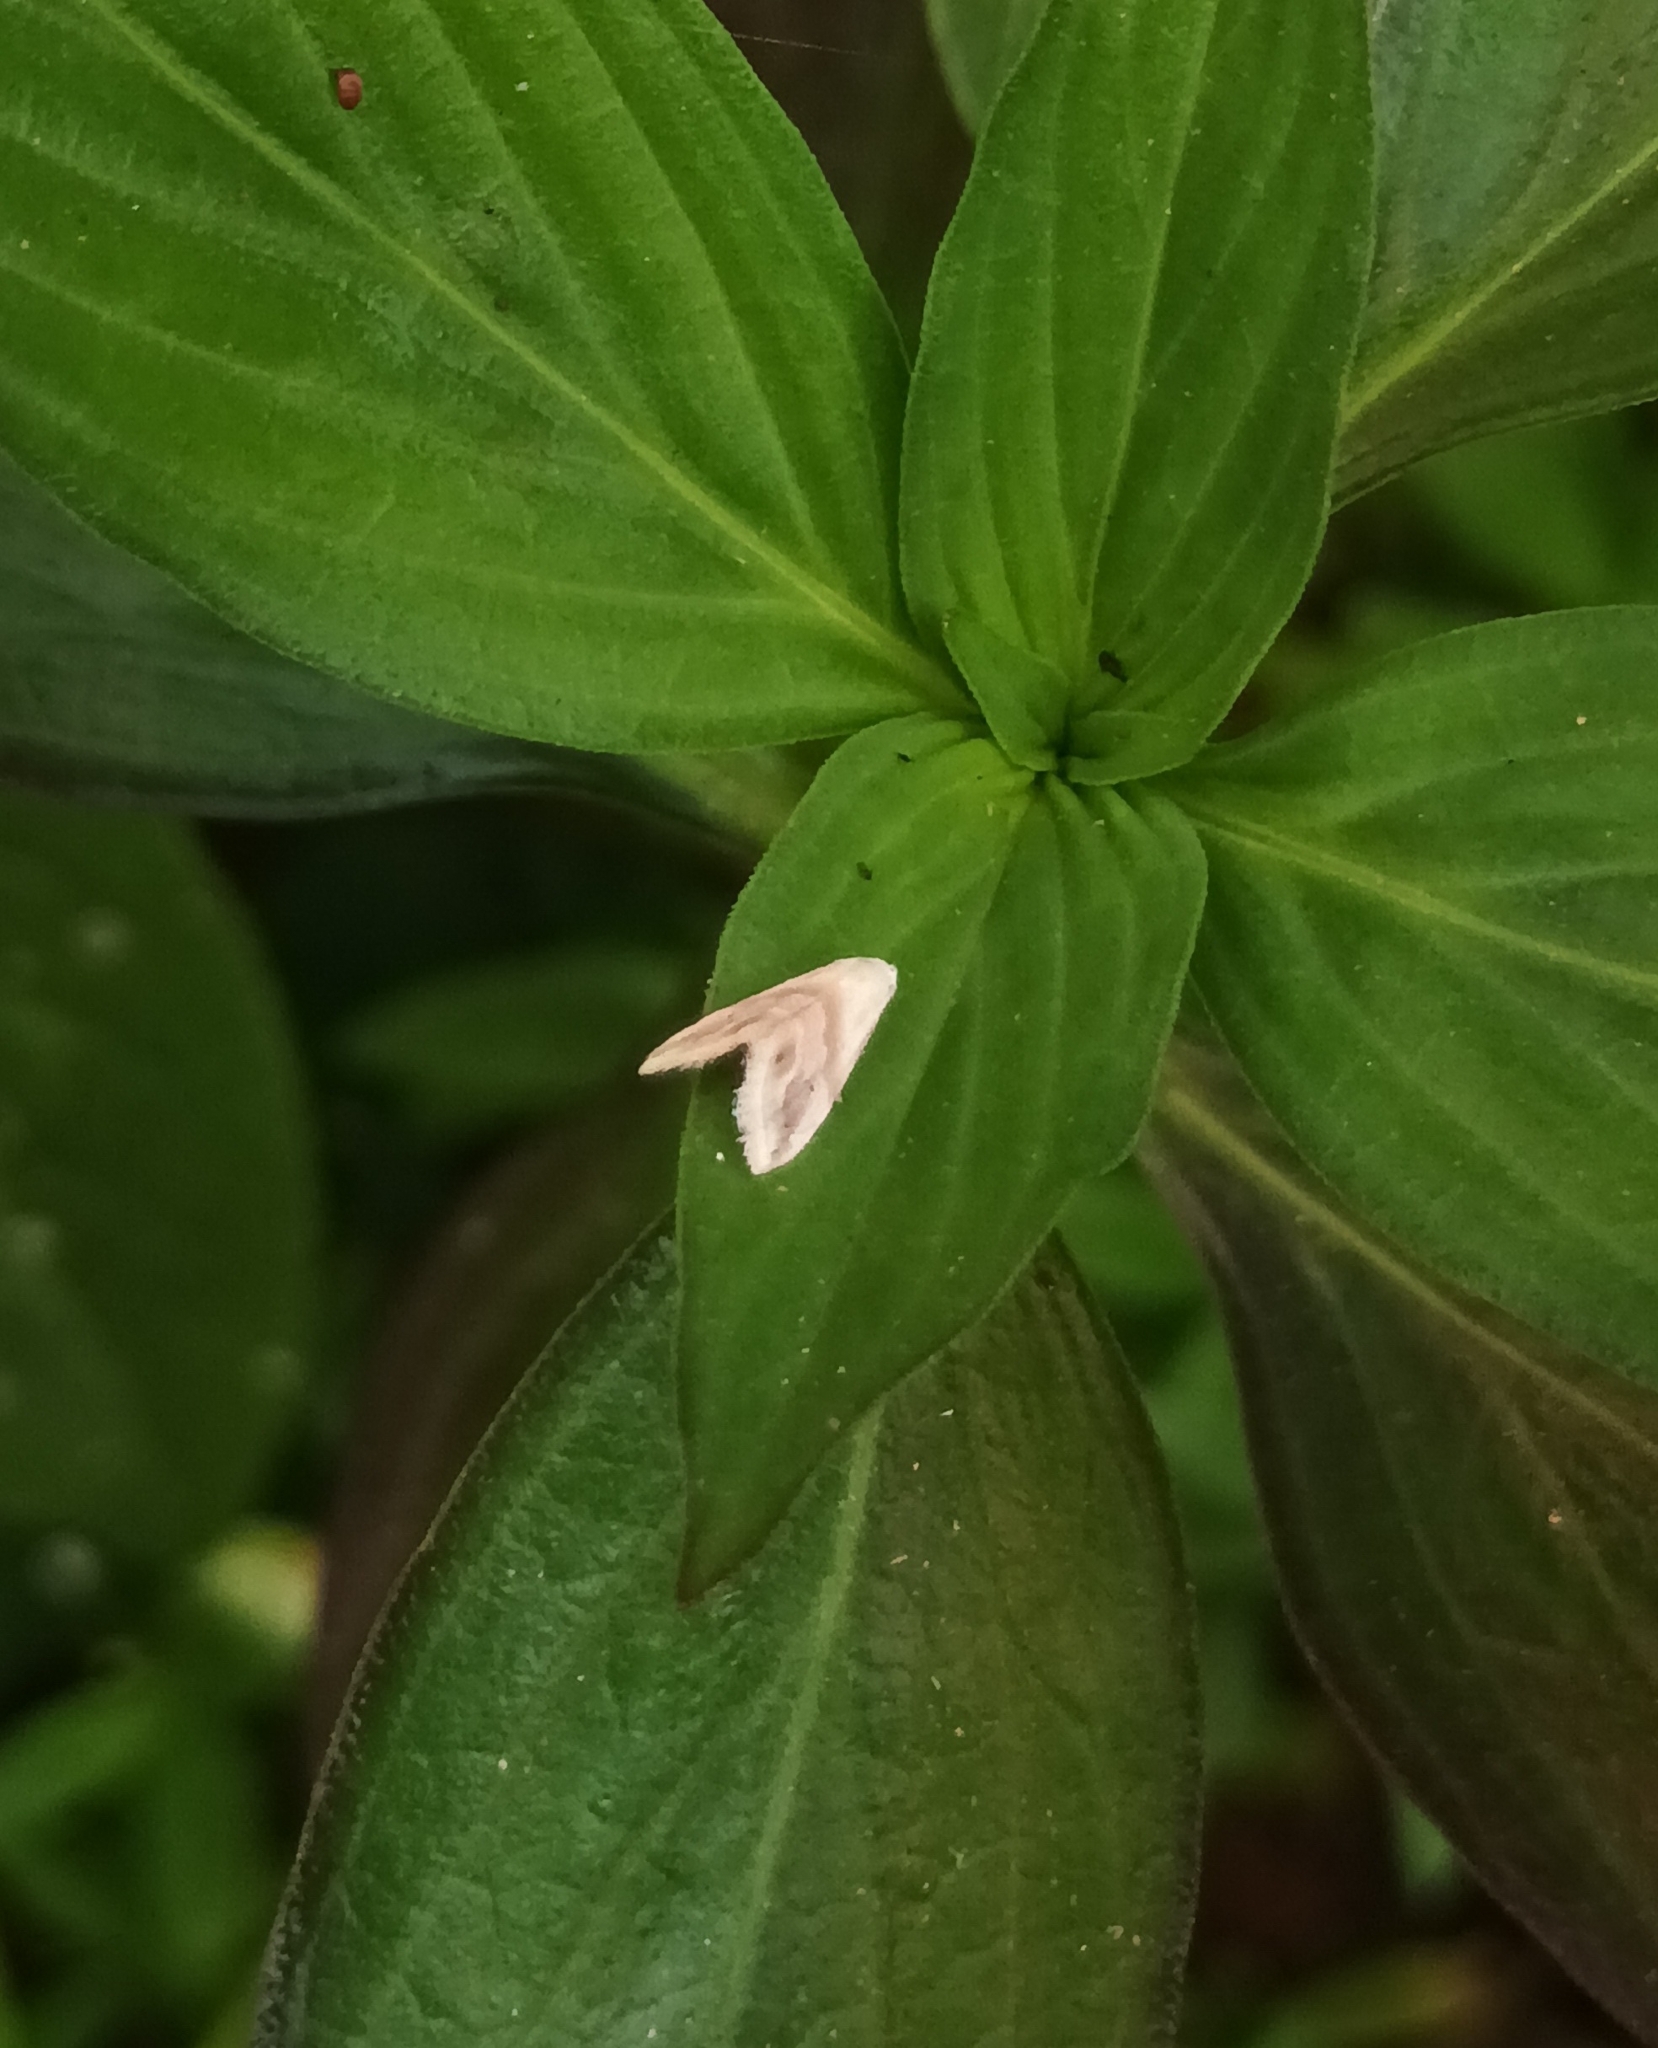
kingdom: Animalia
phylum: Arthropoda
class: Insecta
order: Lepidoptera
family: Noctuidae
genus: Eublemma
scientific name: Eublemma roseana
